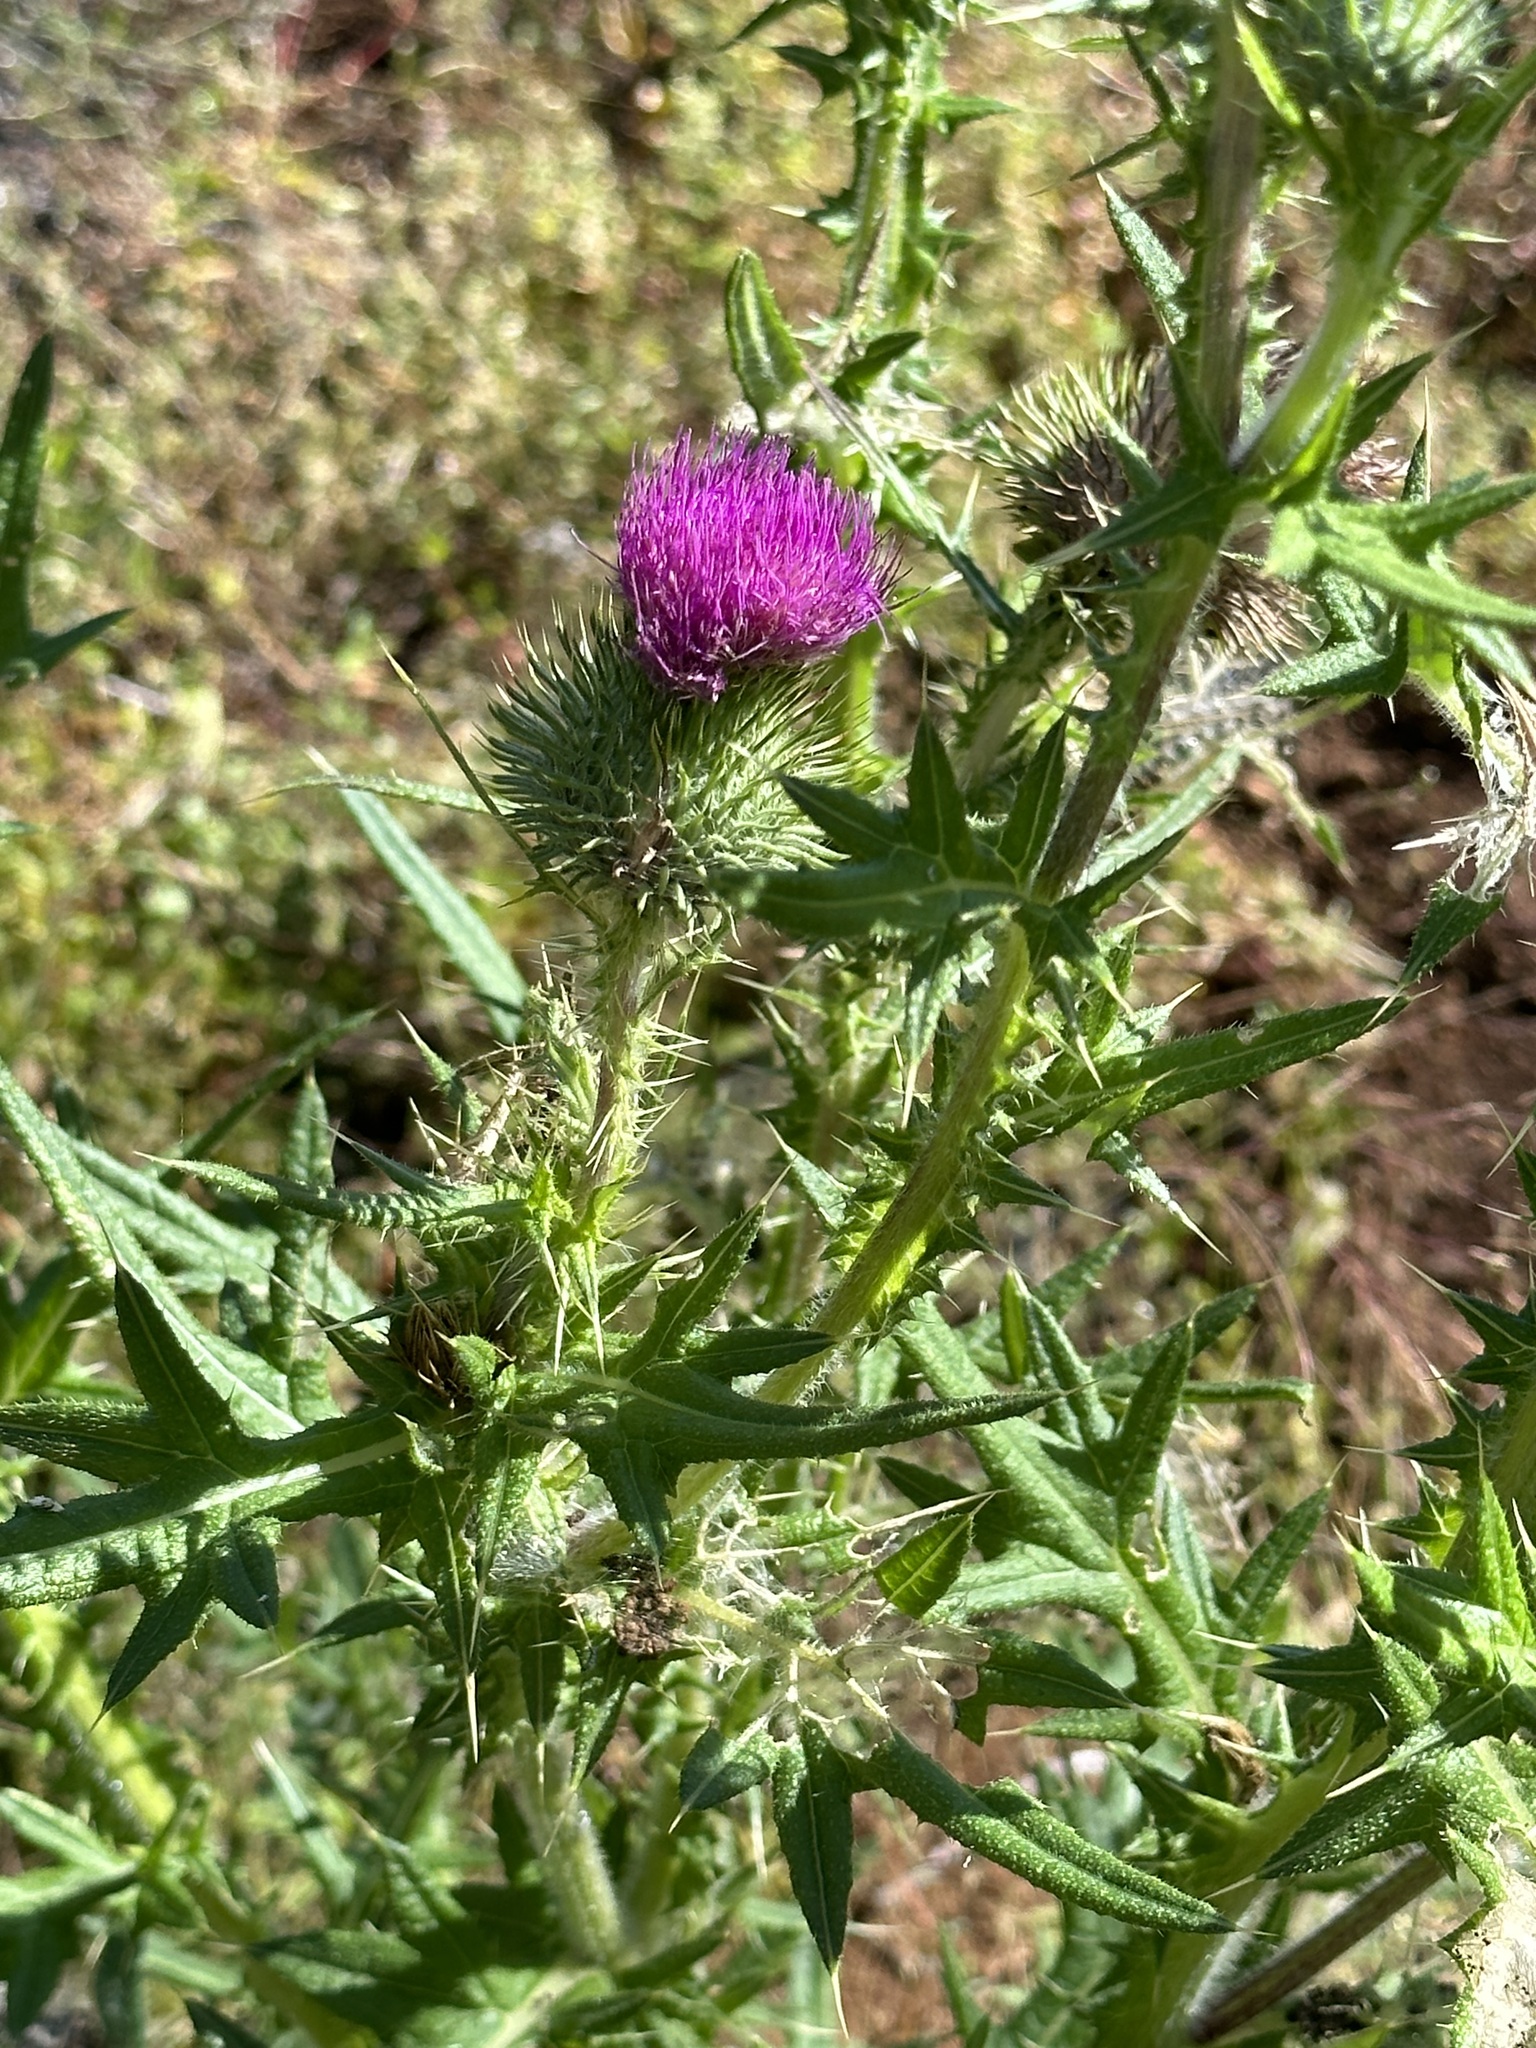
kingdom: Plantae
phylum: Tracheophyta
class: Magnoliopsida
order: Asterales
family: Asteraceae
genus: Cirsium
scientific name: Cirsium vulgare
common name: Bull thistle
